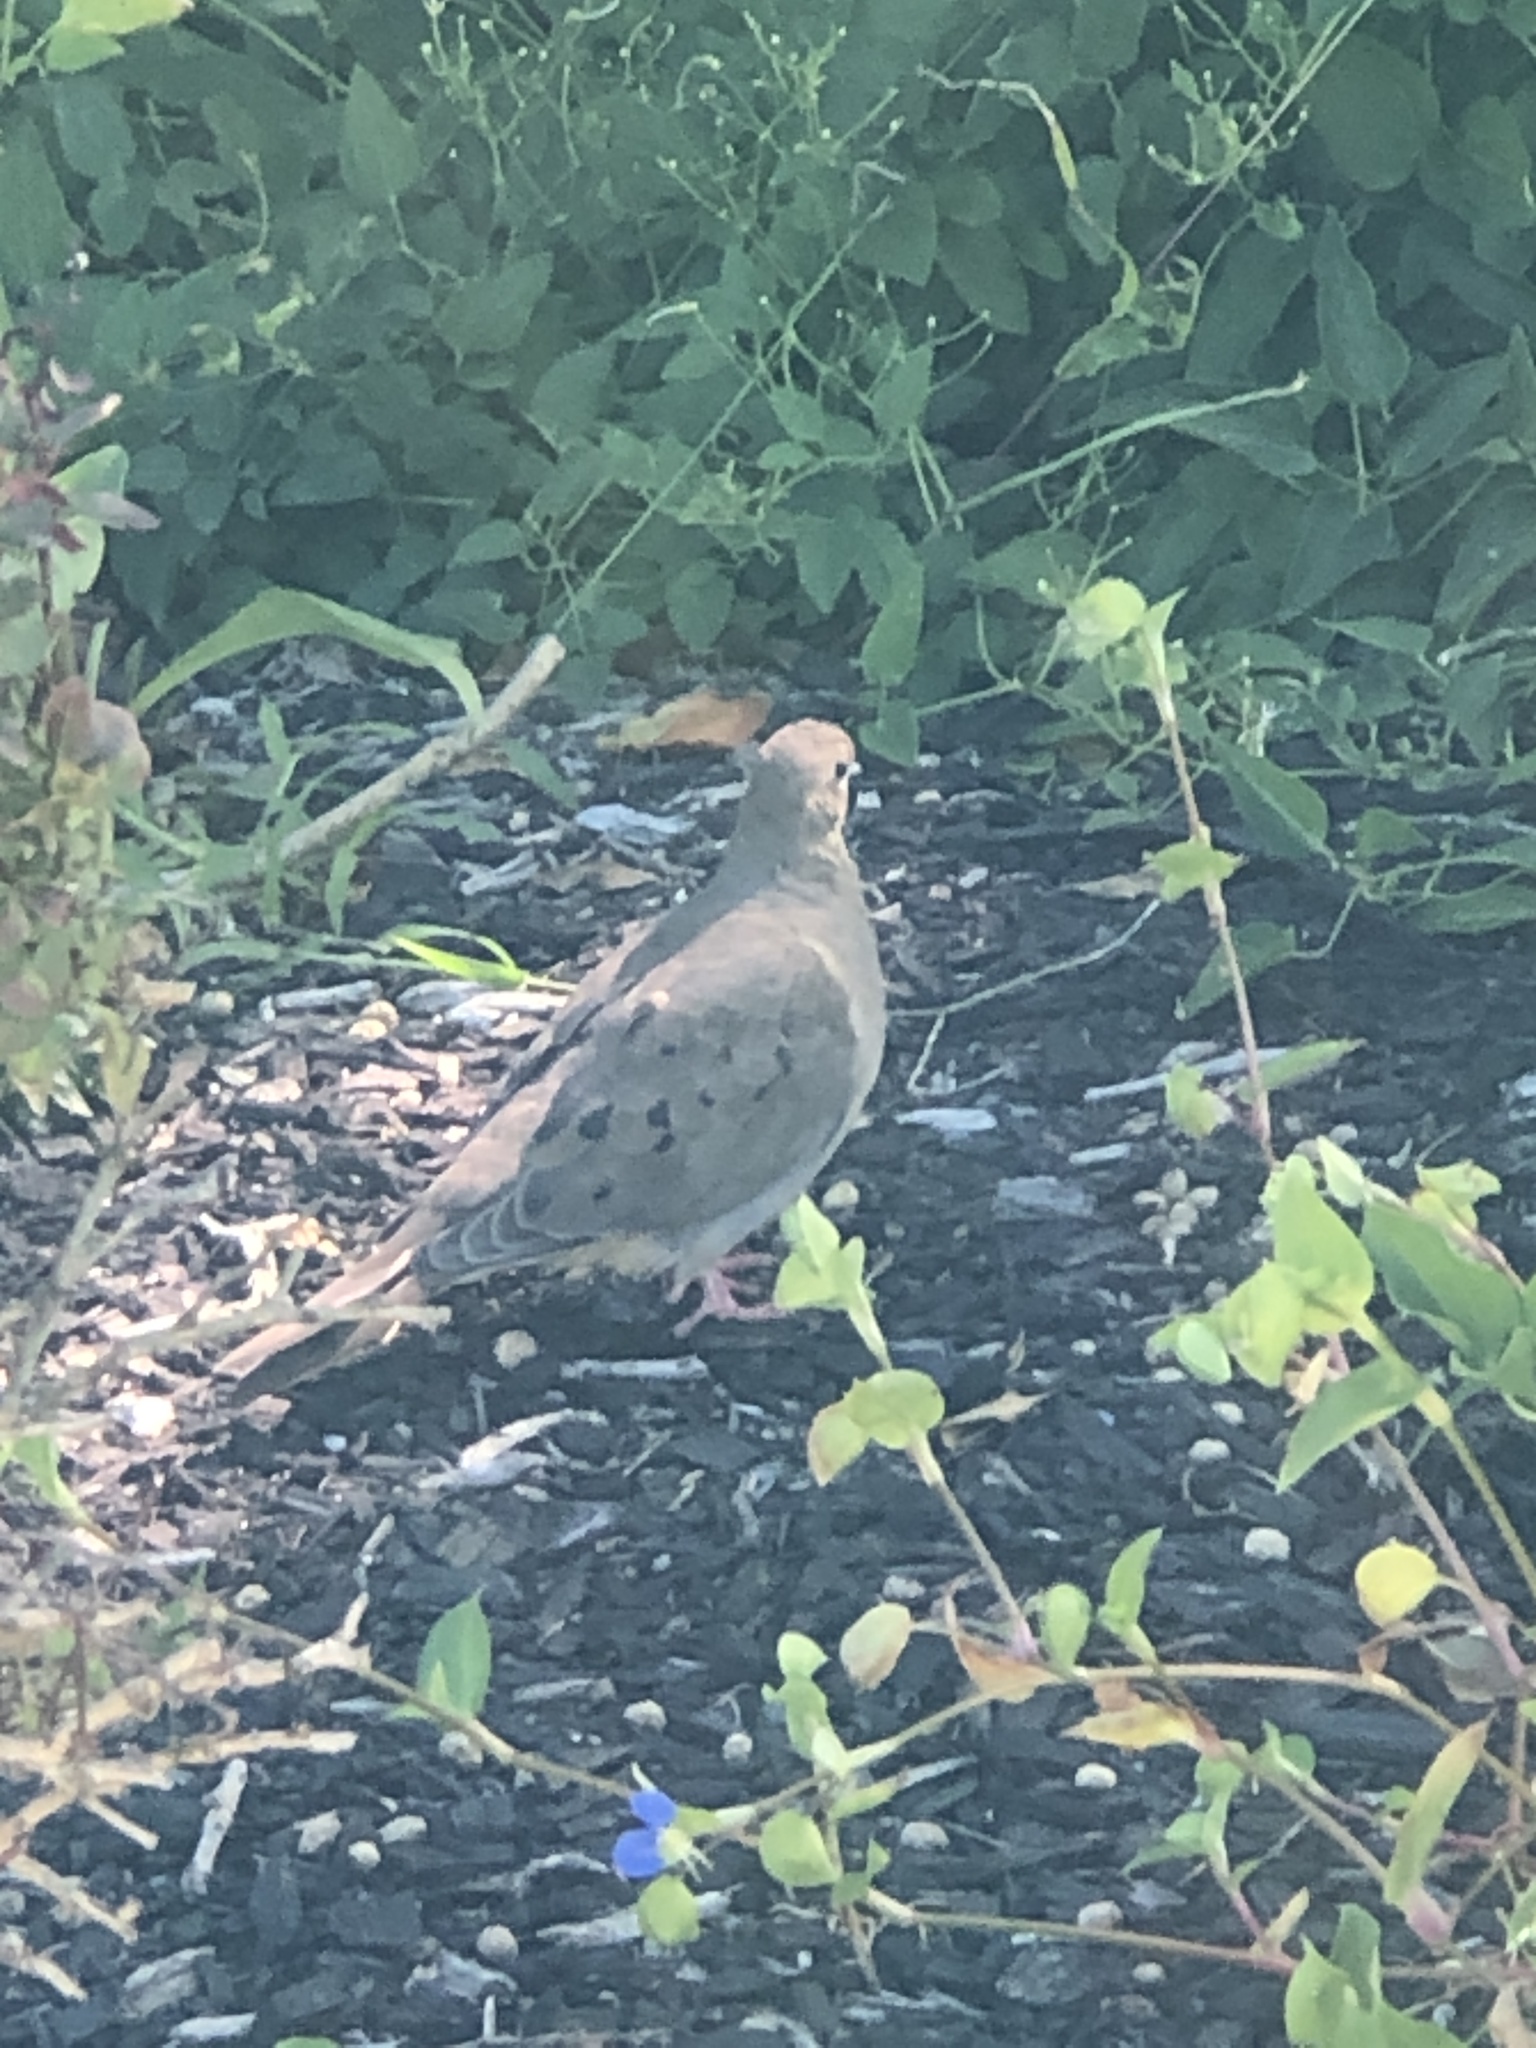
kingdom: Animalia
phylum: Chordata
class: Aves
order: Columbiformes
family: Columbidae
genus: Zenaida
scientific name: Zenaida macroura
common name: Mourning dove
